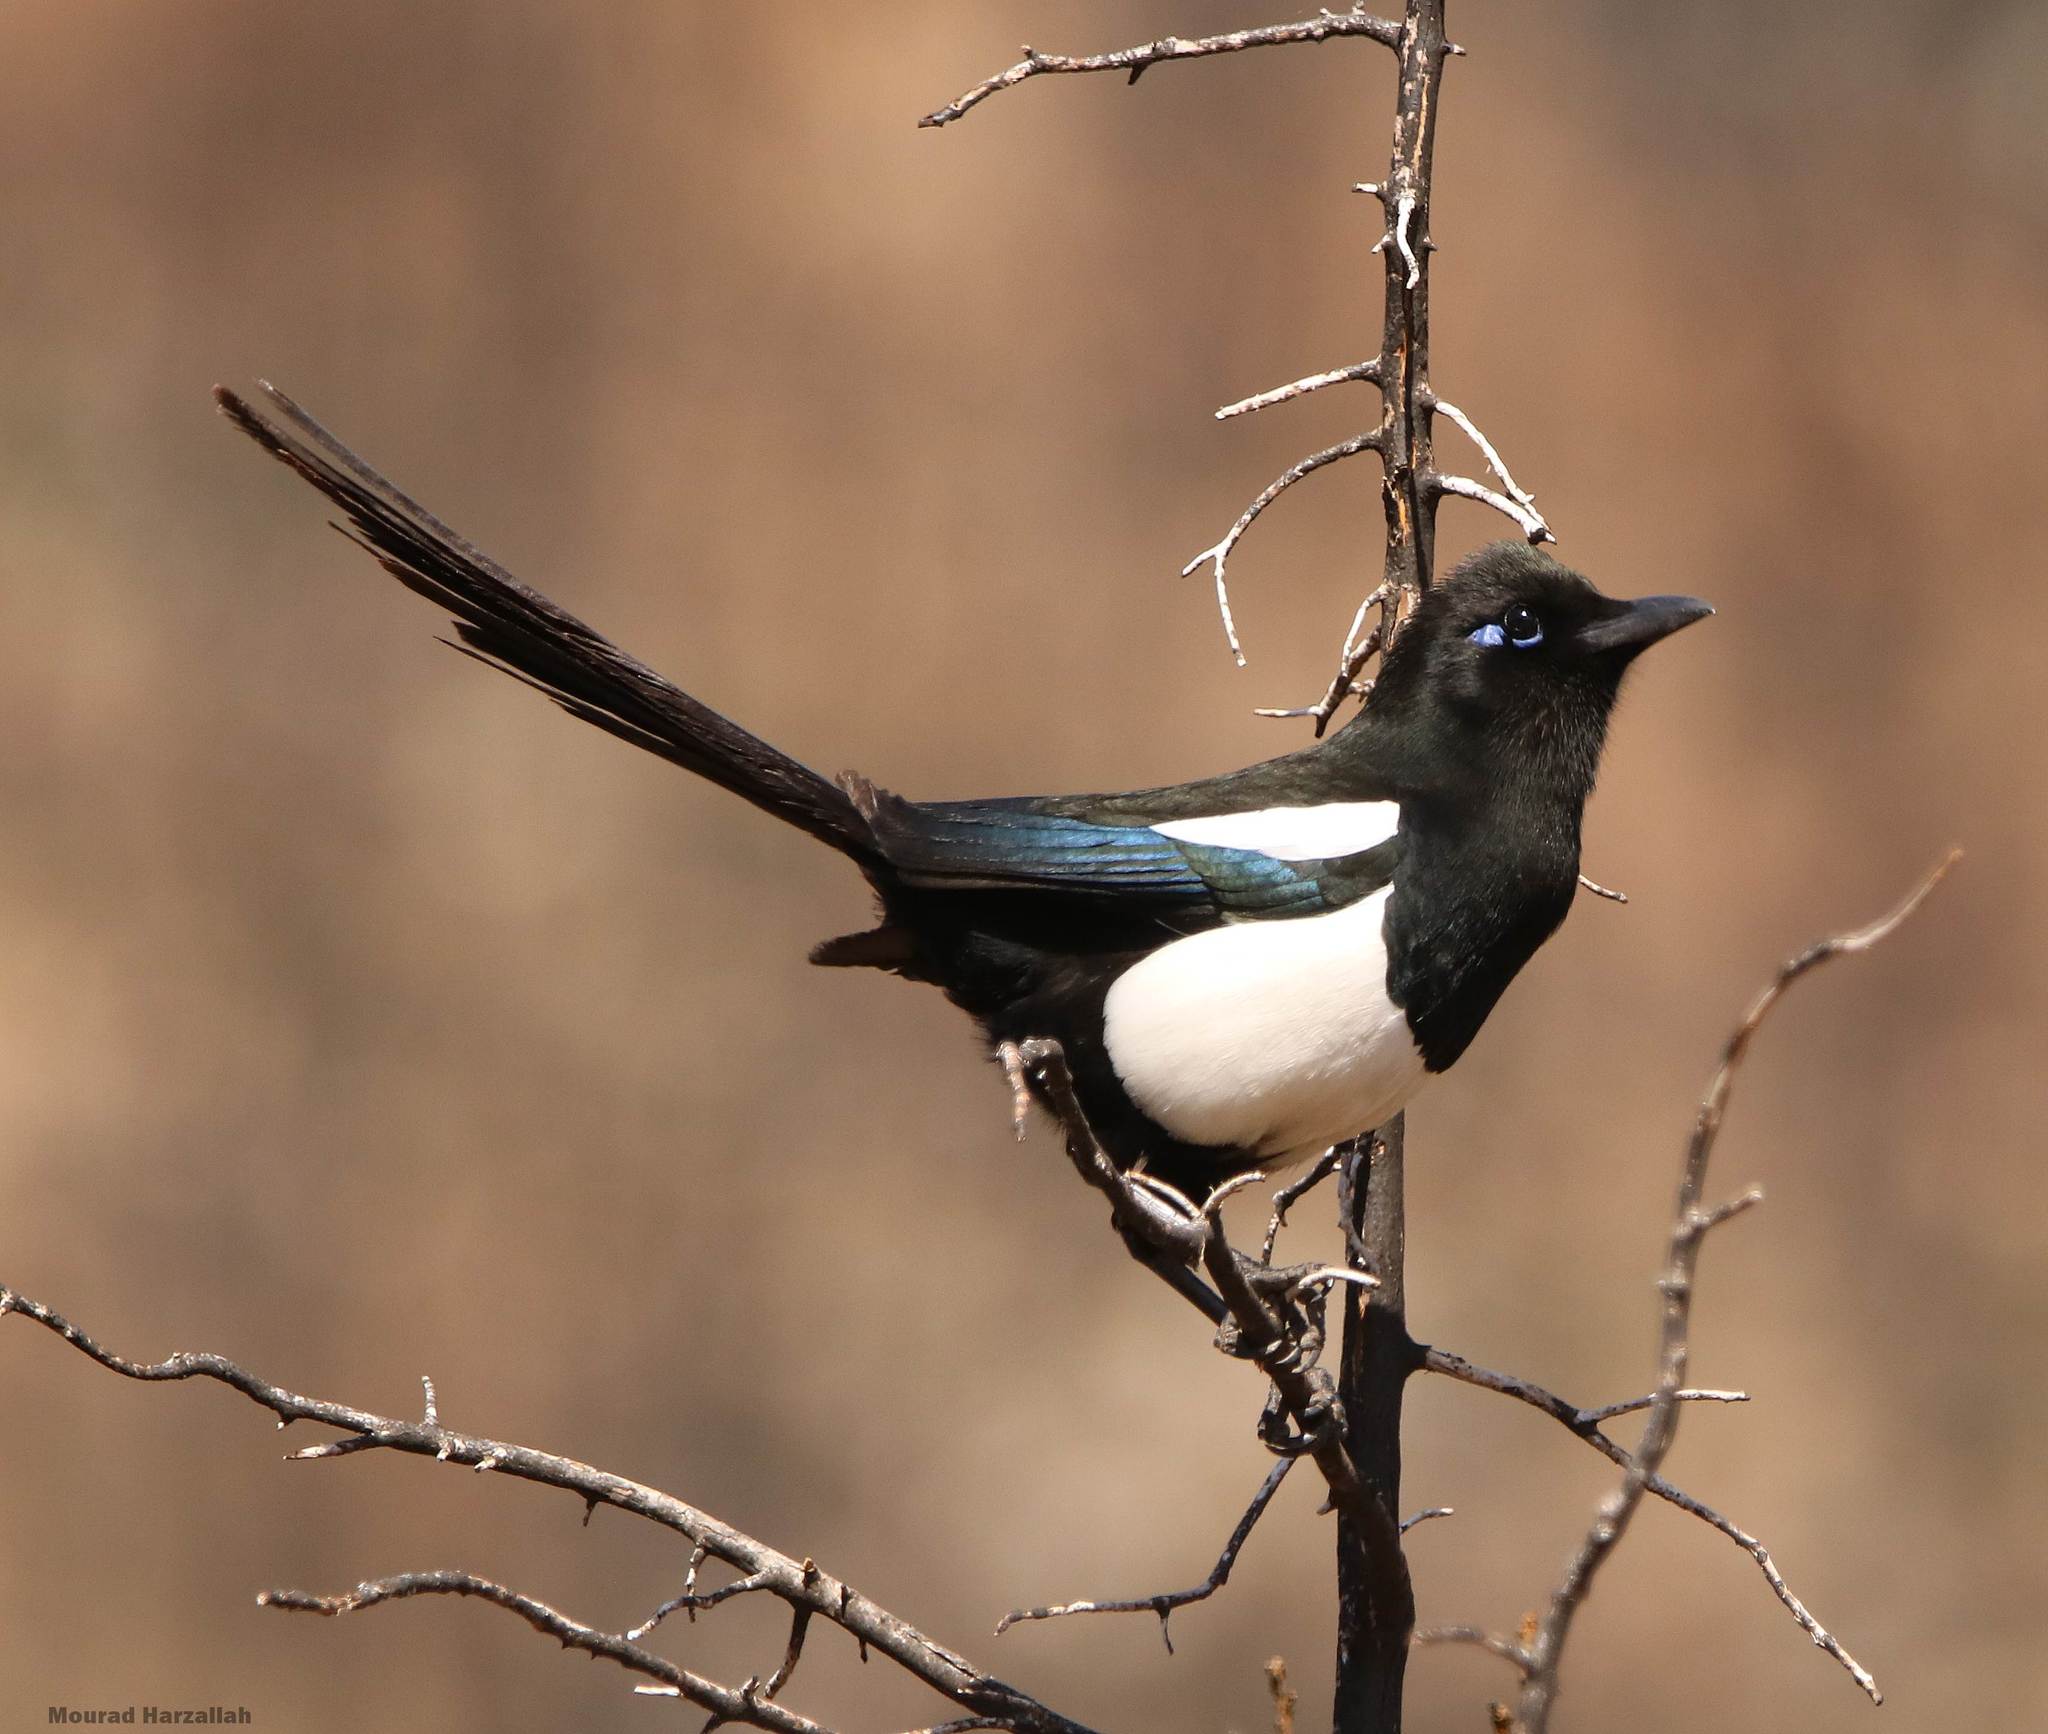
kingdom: Animalia
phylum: Chordata
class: Aves
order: Passeriformes
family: Corvidae
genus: Pica
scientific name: Pica mauritanica
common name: Maghreb magpie
